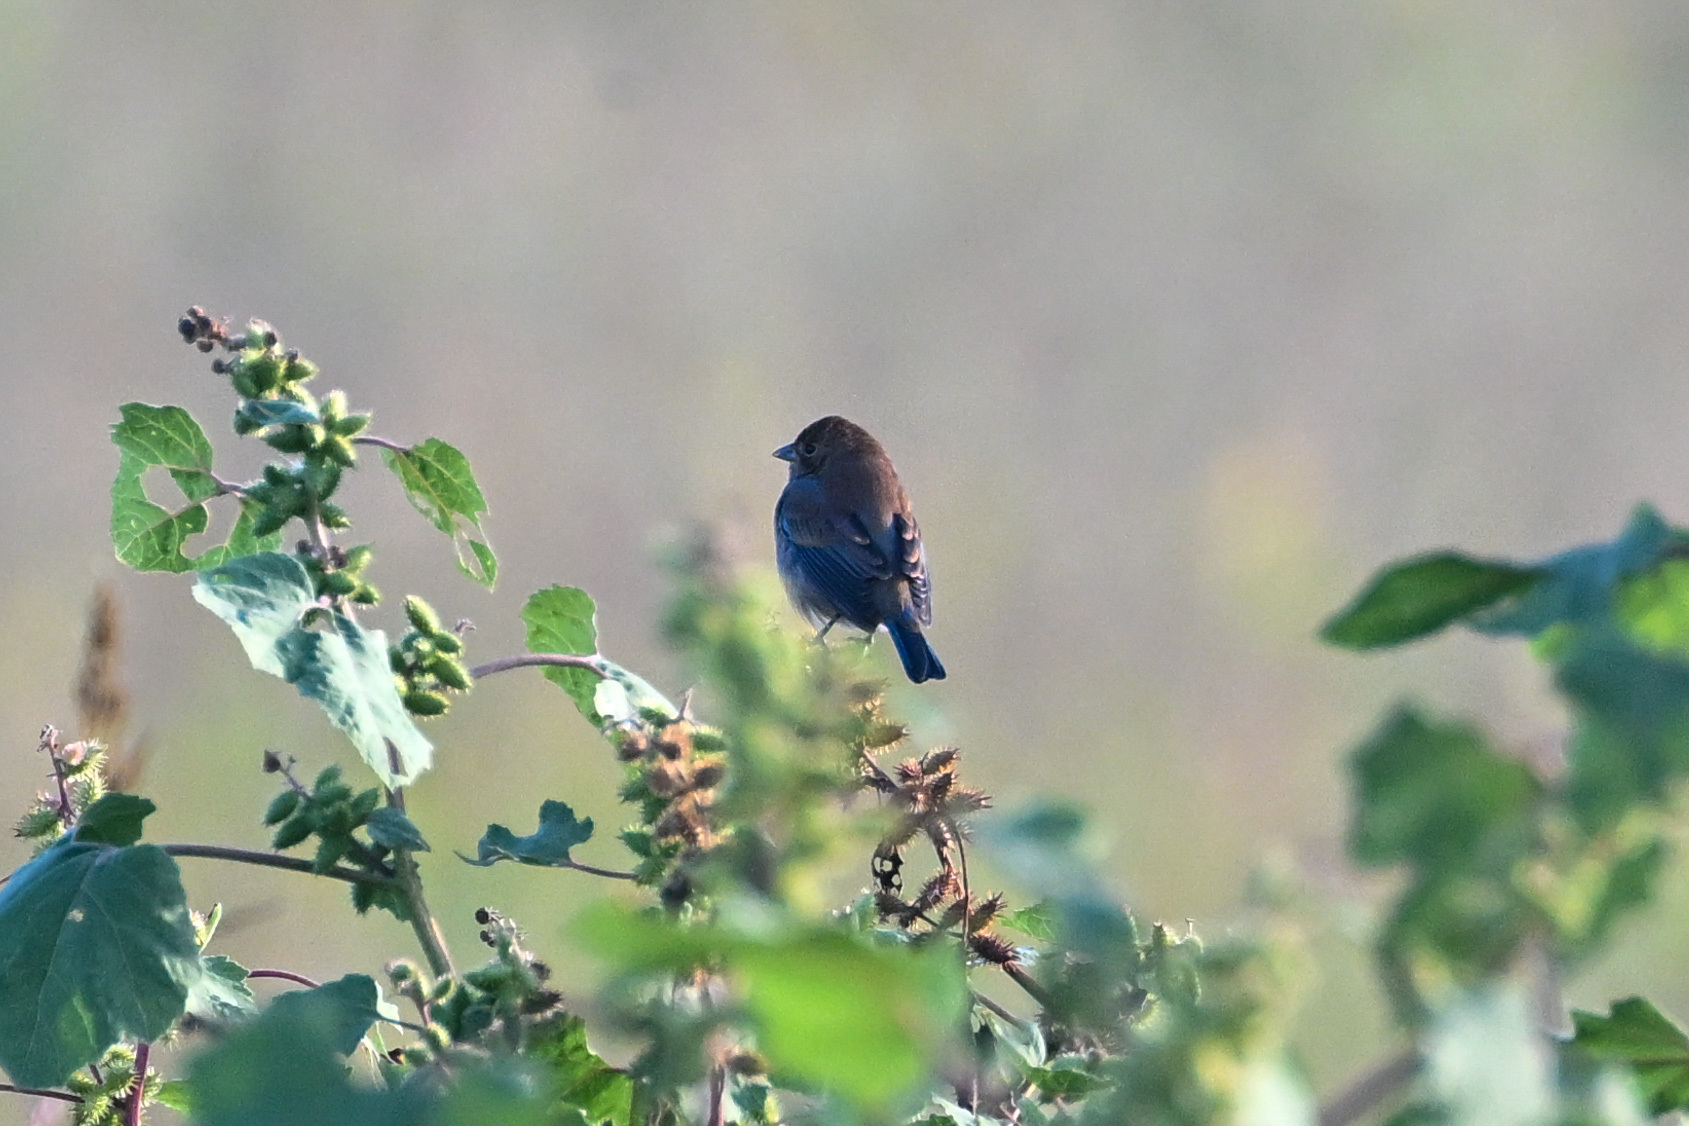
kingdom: Animalia
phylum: Chordata
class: Aves
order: Passeriformes
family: Cardinalidae
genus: Passerina
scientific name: Passerina cyanea
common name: Indigo bunting
